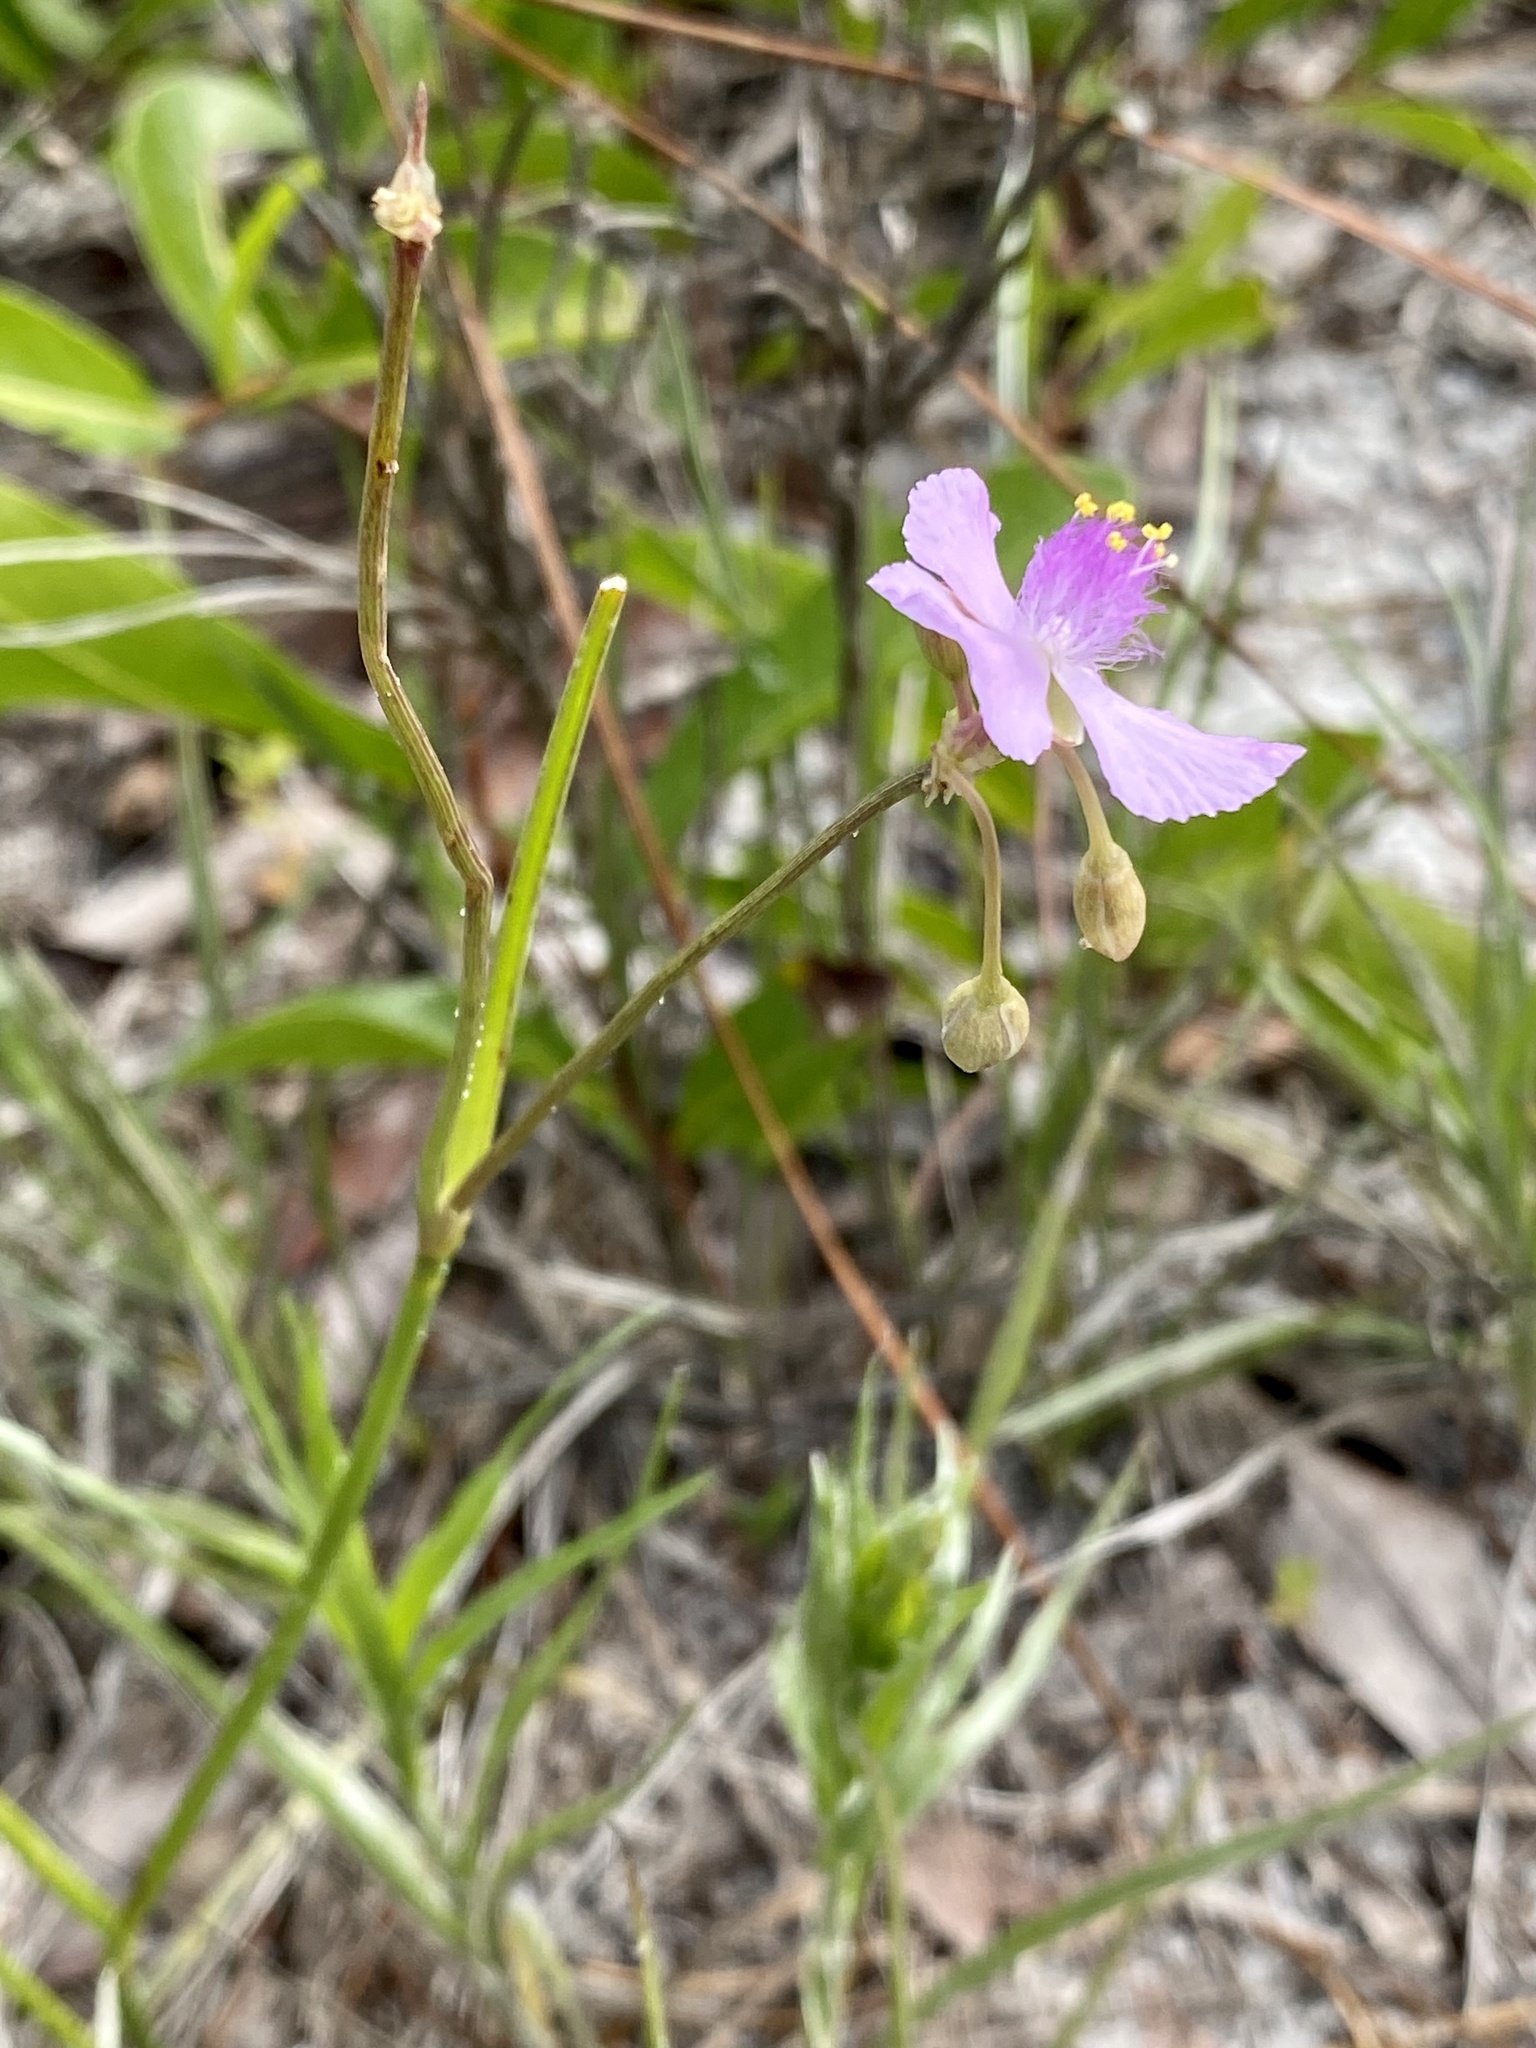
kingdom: Plantae
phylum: Tracheophyta
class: Liliopsida
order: Commelinales
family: Commelinaceae
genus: Callisia
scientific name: Callisia ornata
